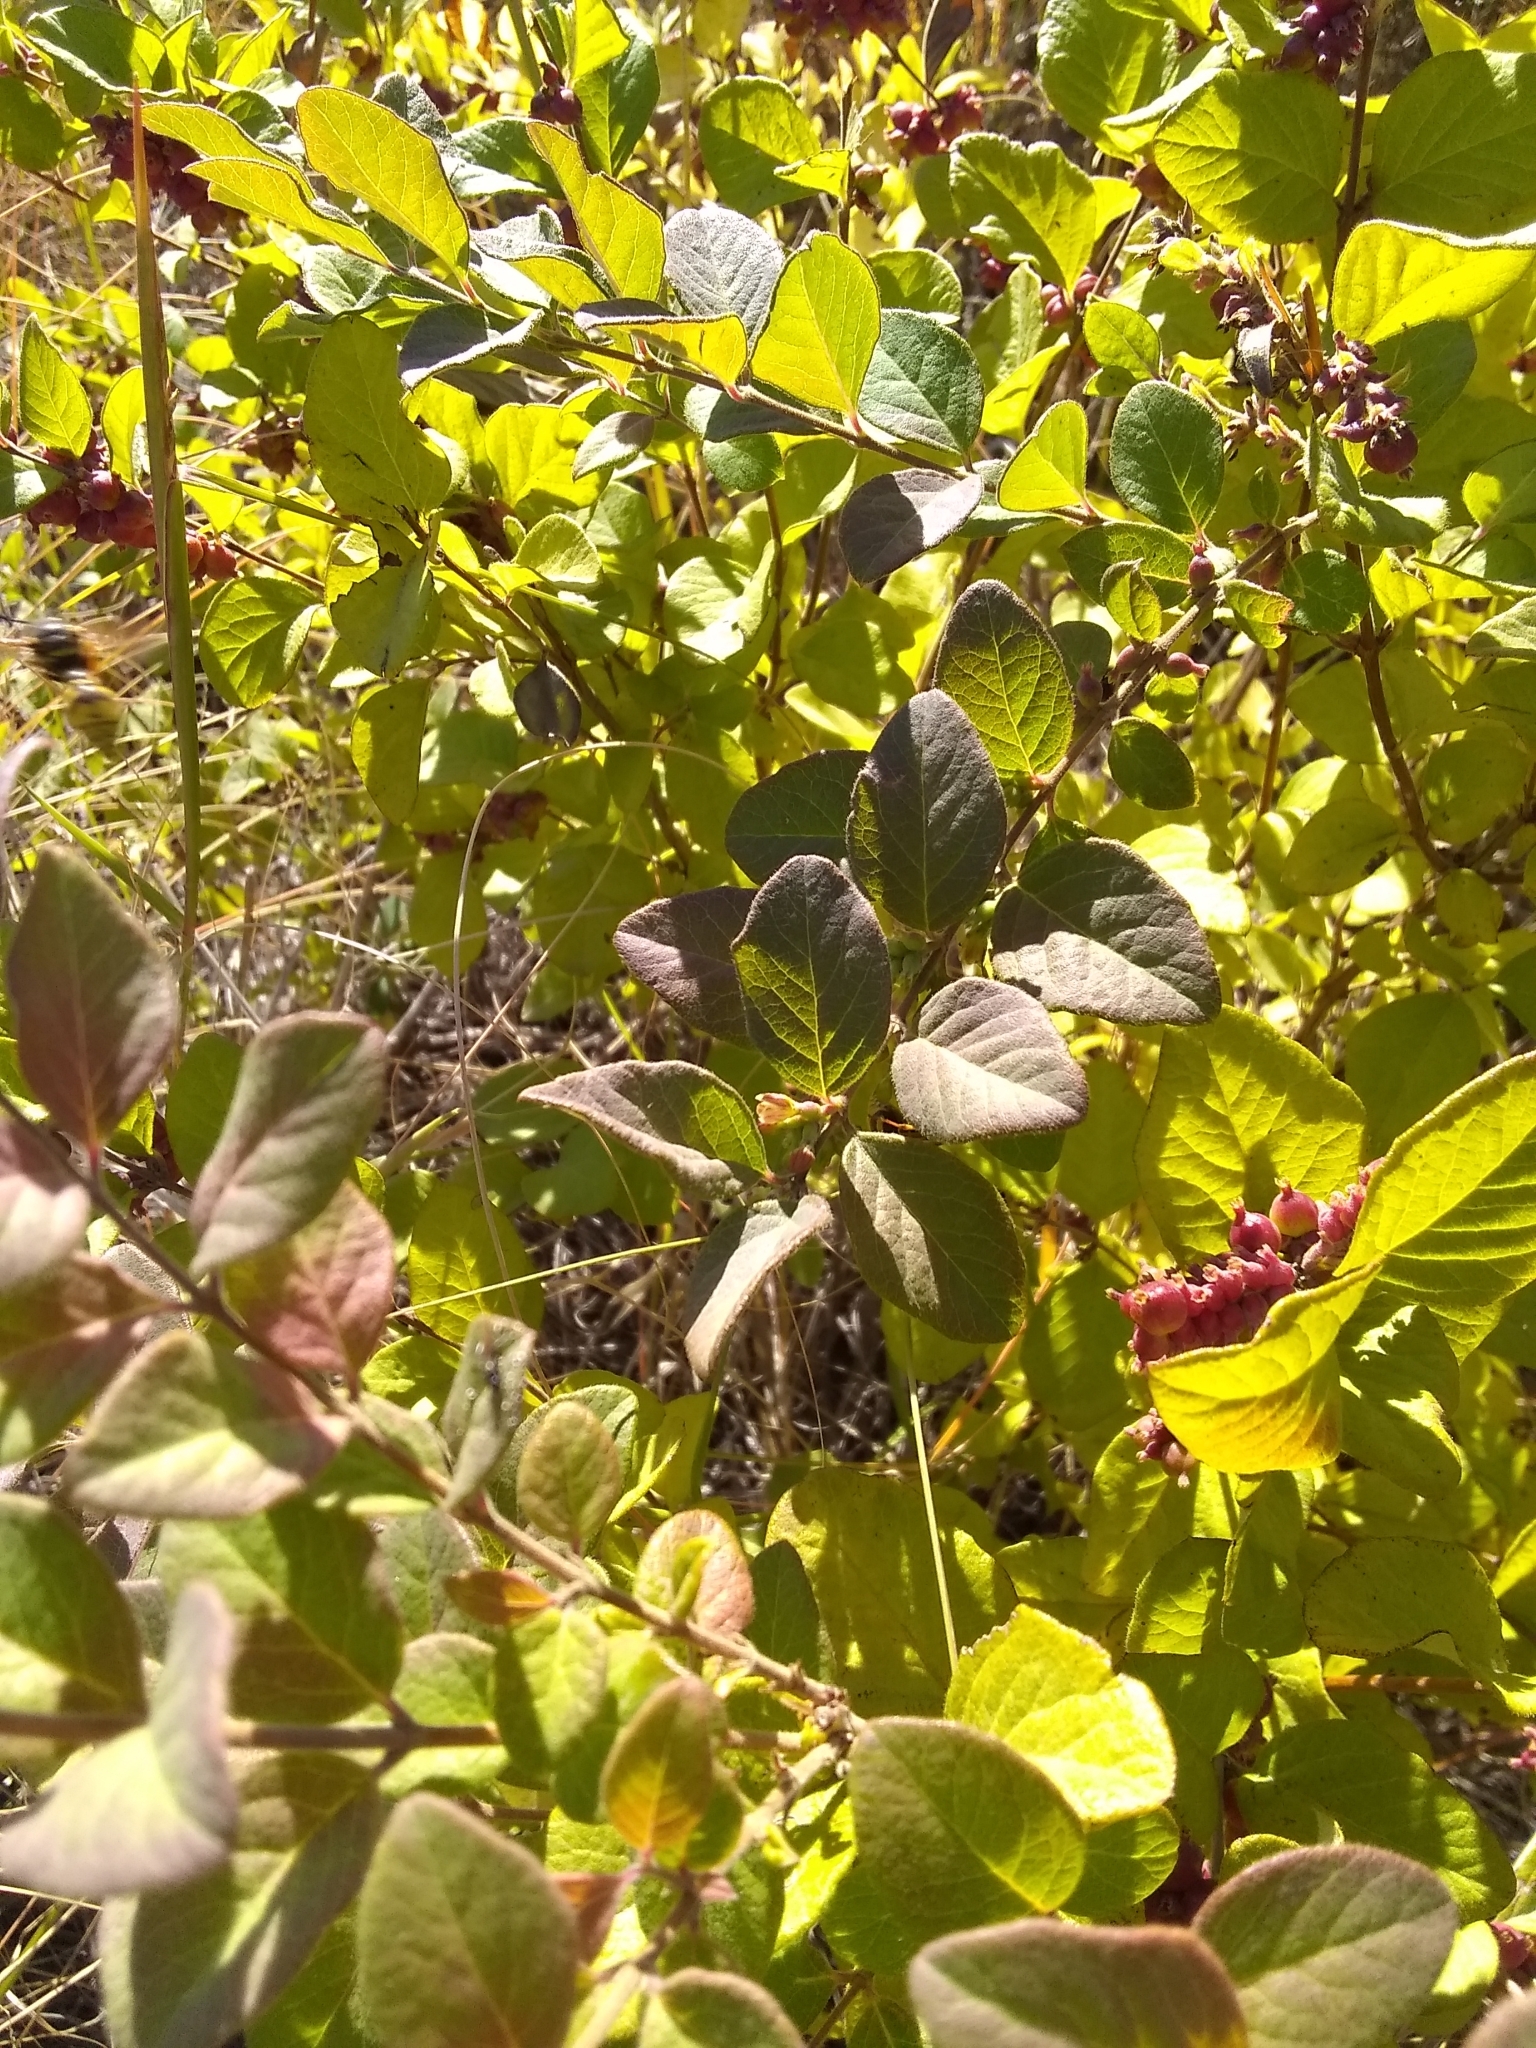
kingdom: Plantae
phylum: Tracheophyta
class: Magnoliopsida
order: Dipsacales
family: Caprifoliaceae
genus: Symphoricarpos
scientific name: Symphoricarpos orbiculatus
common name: Coralberry
